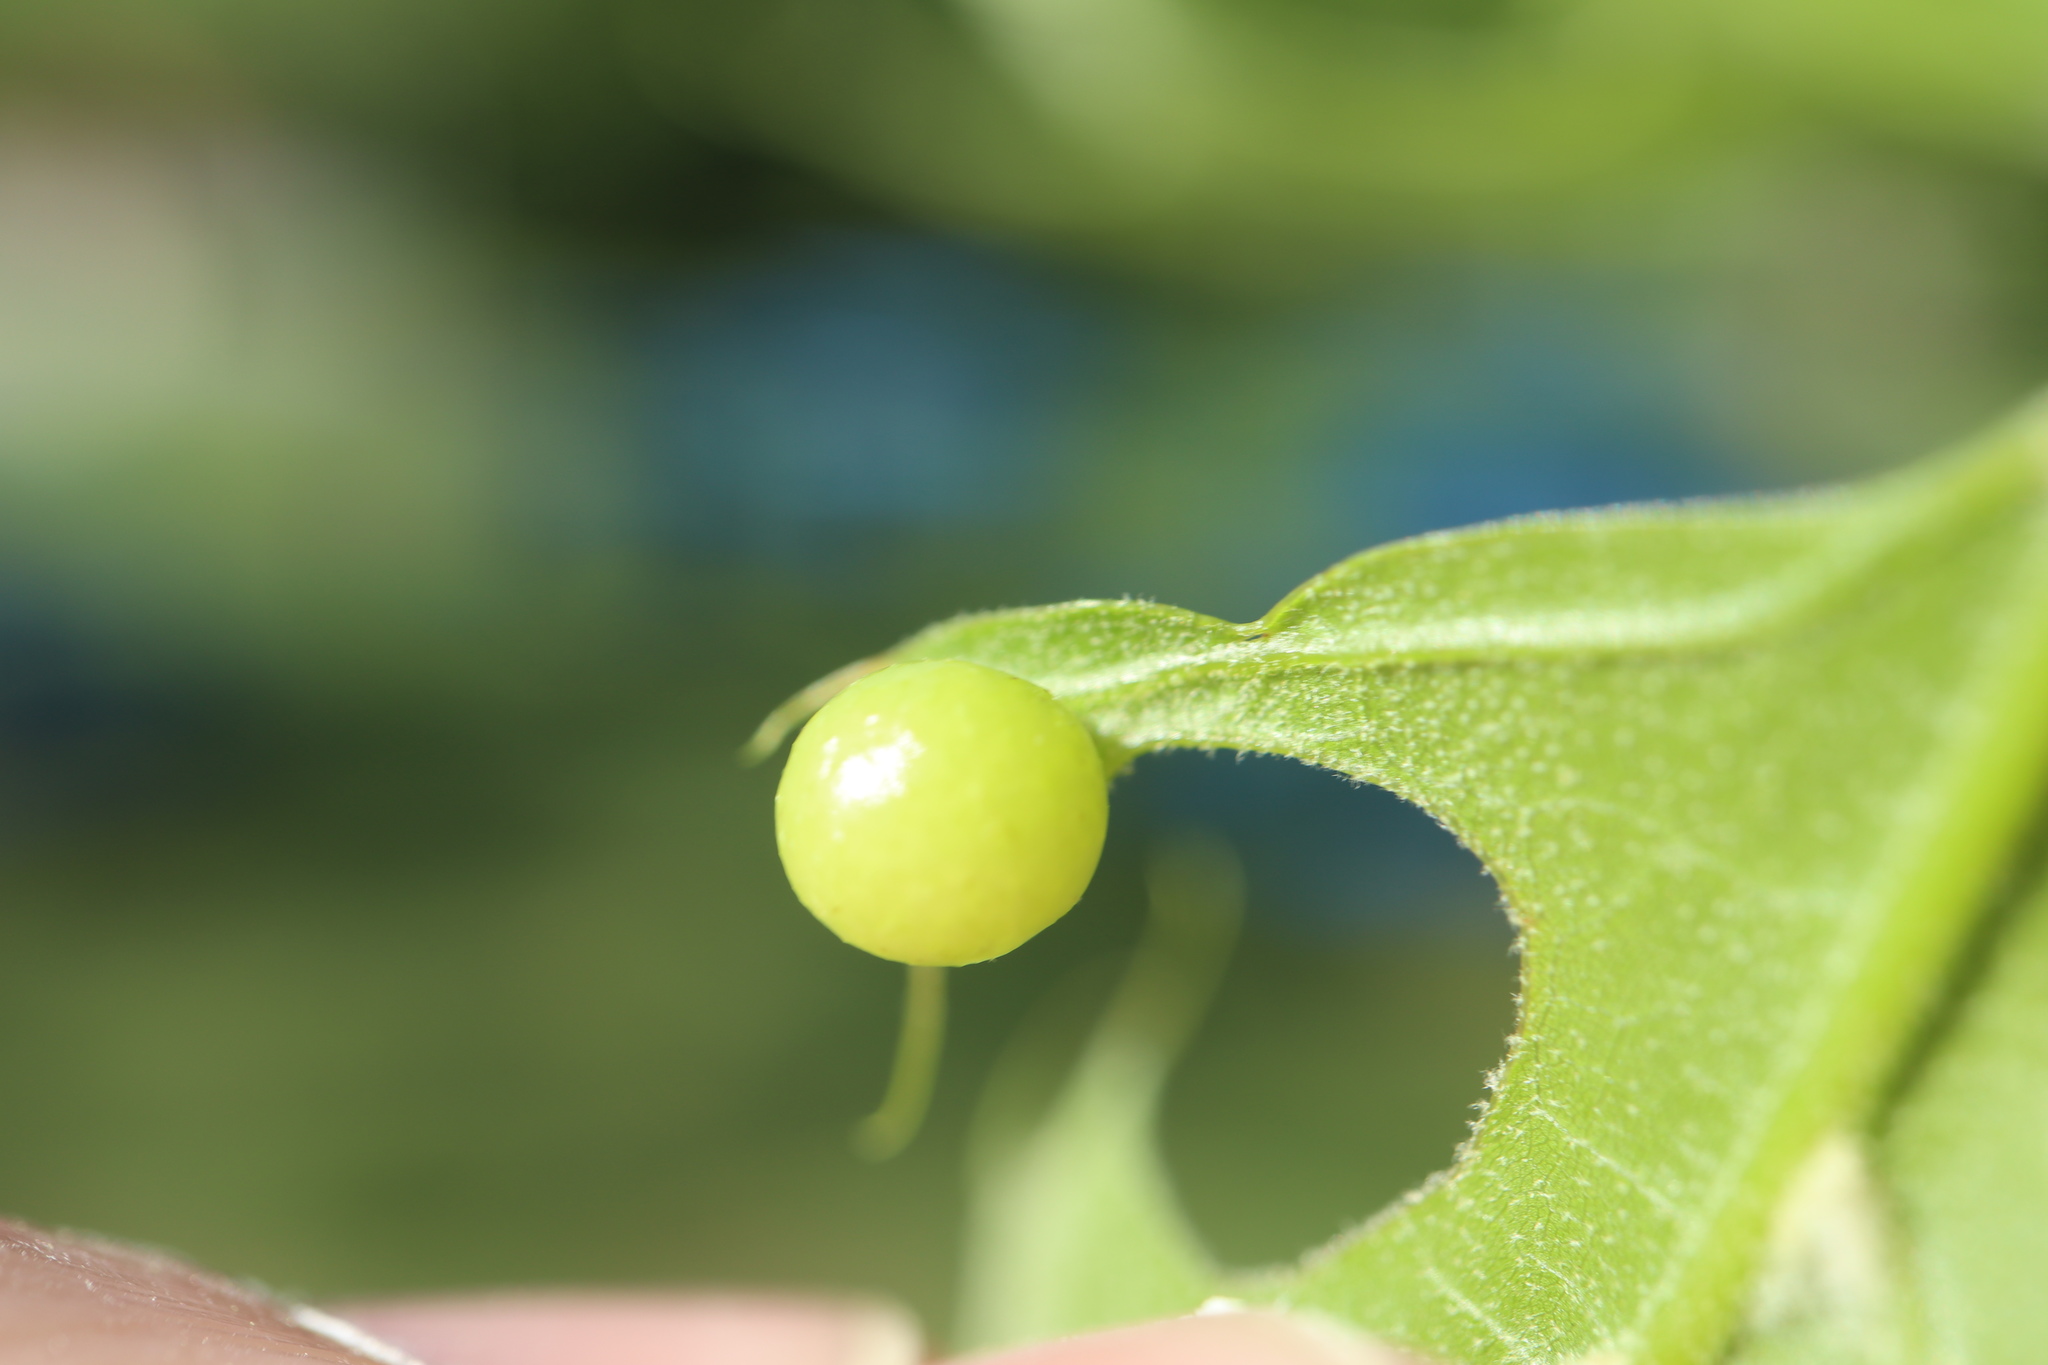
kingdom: Animalia
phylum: Arthropoda
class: Insecta
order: Hymenoptera
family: Cynipidae
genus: Amphibolips
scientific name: Amphibolips
